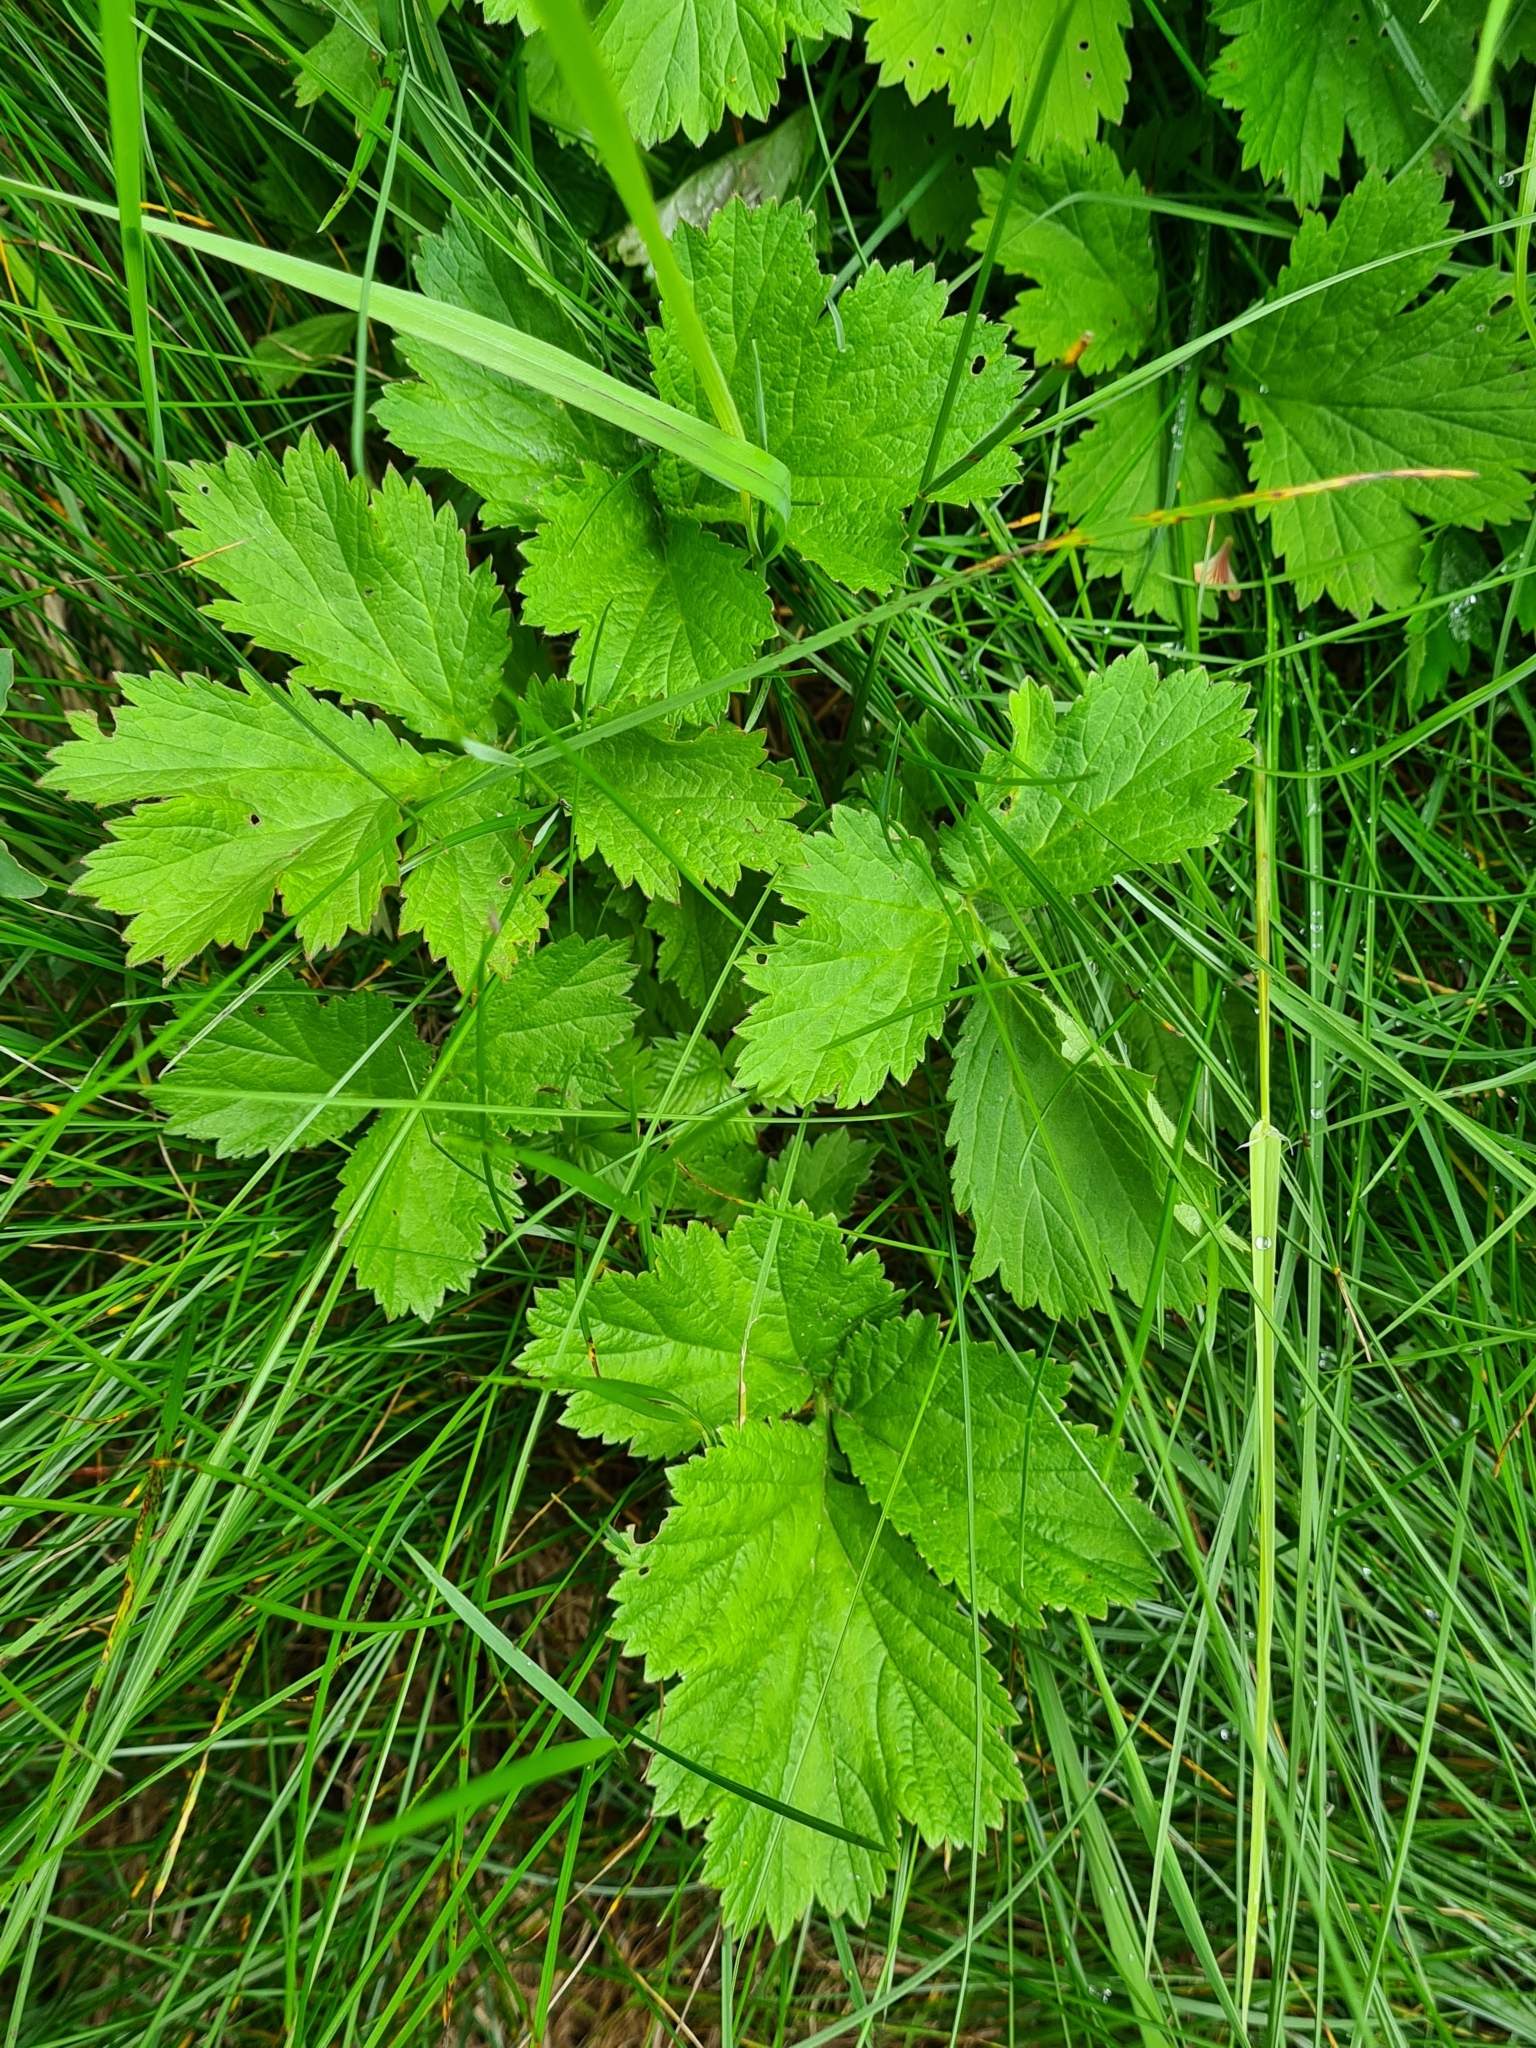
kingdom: Plantae
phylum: Tracheophyta
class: Magnoliopsida
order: Rosales
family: Rosaceae
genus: Geum
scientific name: Geum rivale
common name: Water avens
